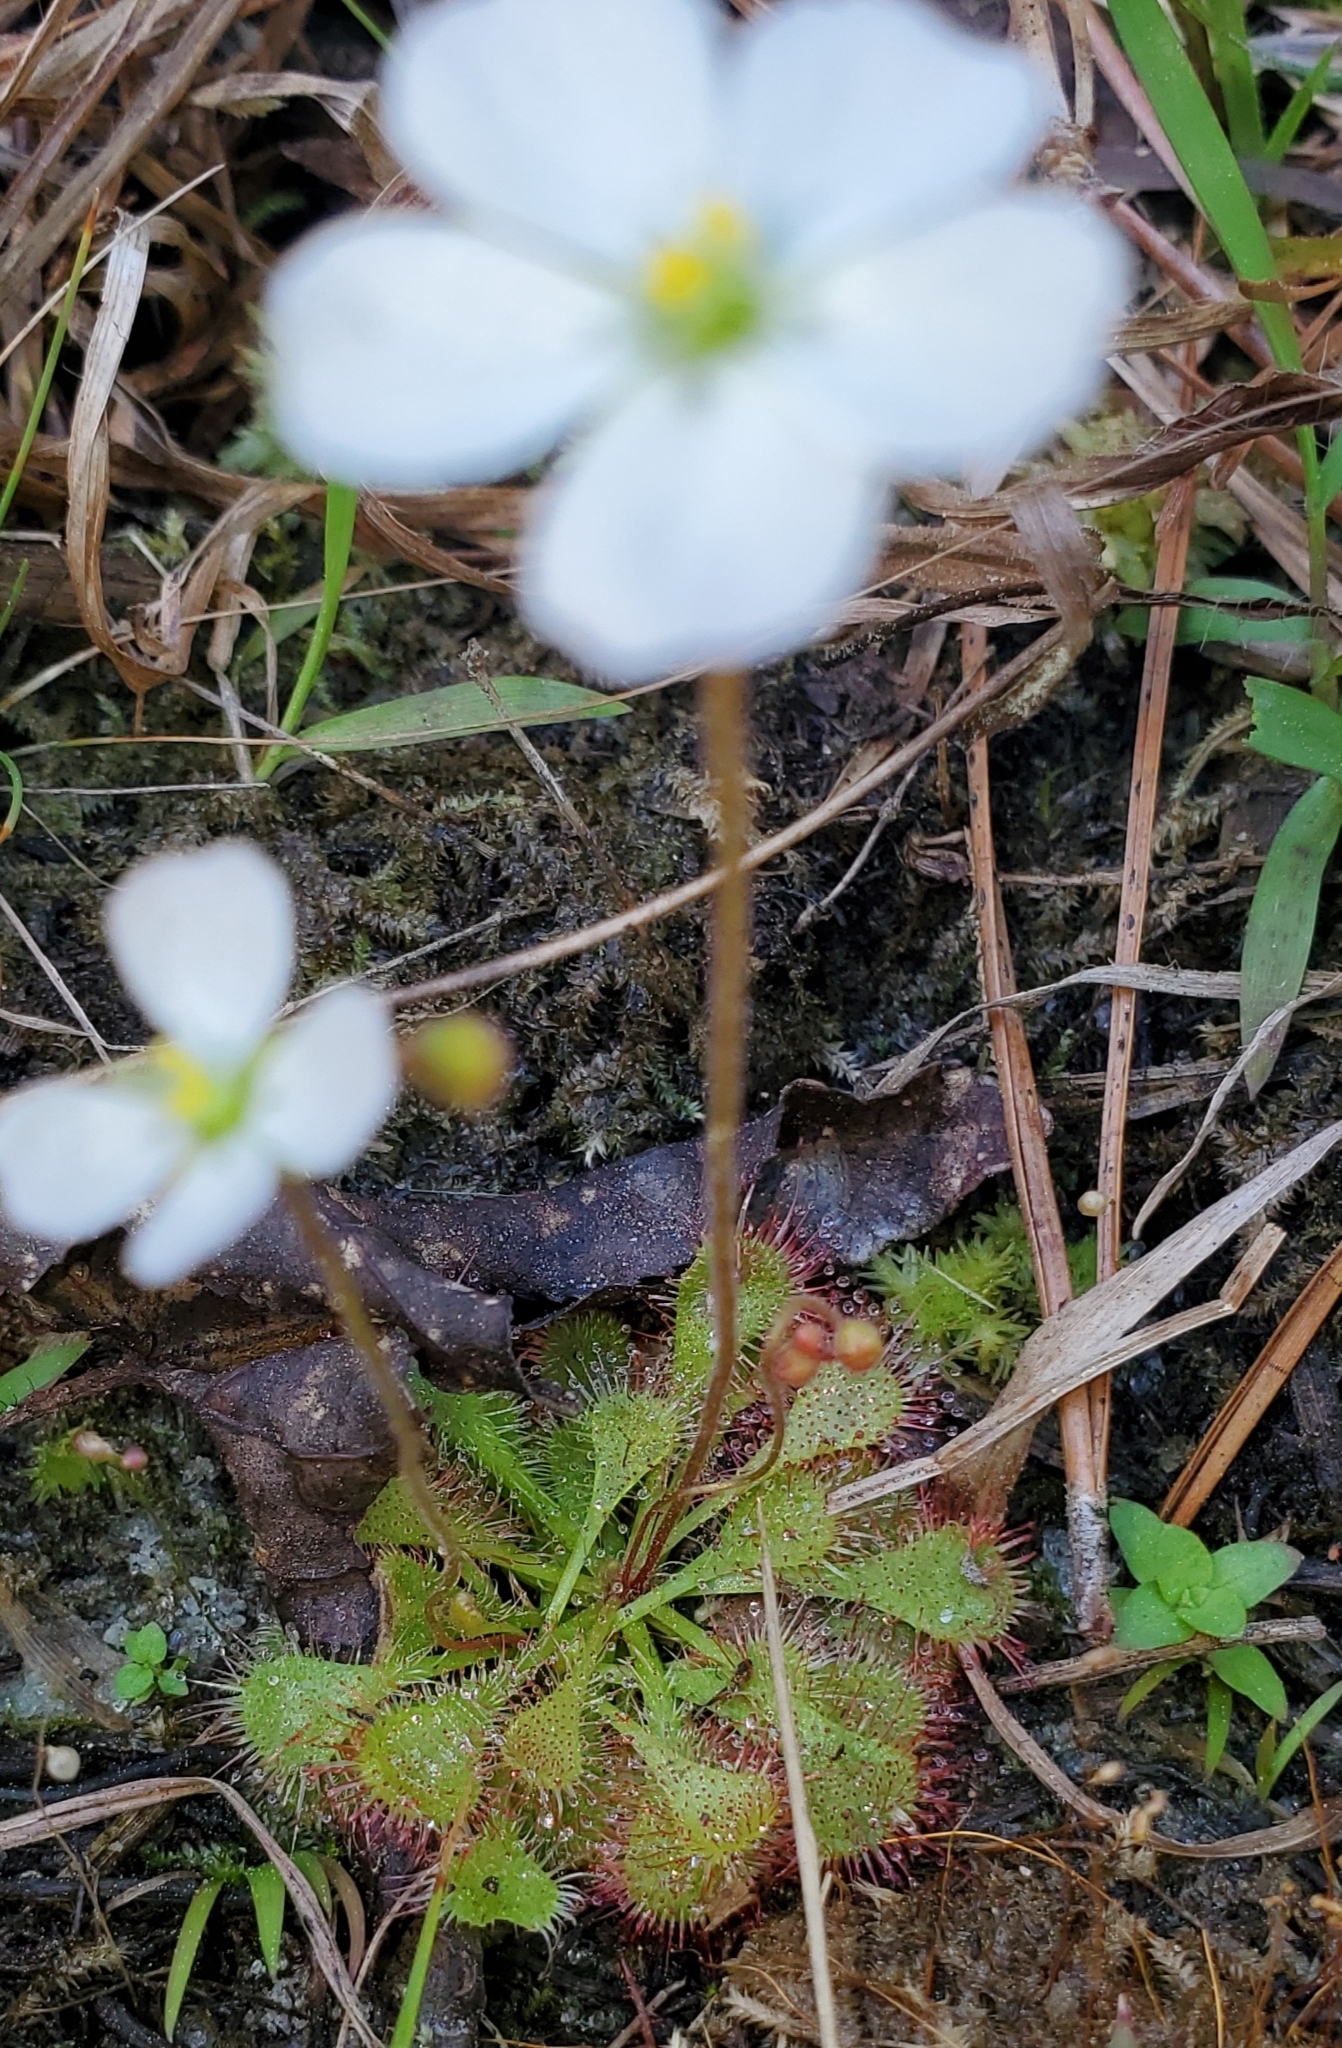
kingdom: Plantae
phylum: Tracheophyta
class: Magnoliopsida
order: Caryophyllales
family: Droseraceae
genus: Drosera
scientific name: Drosera brevifolia
